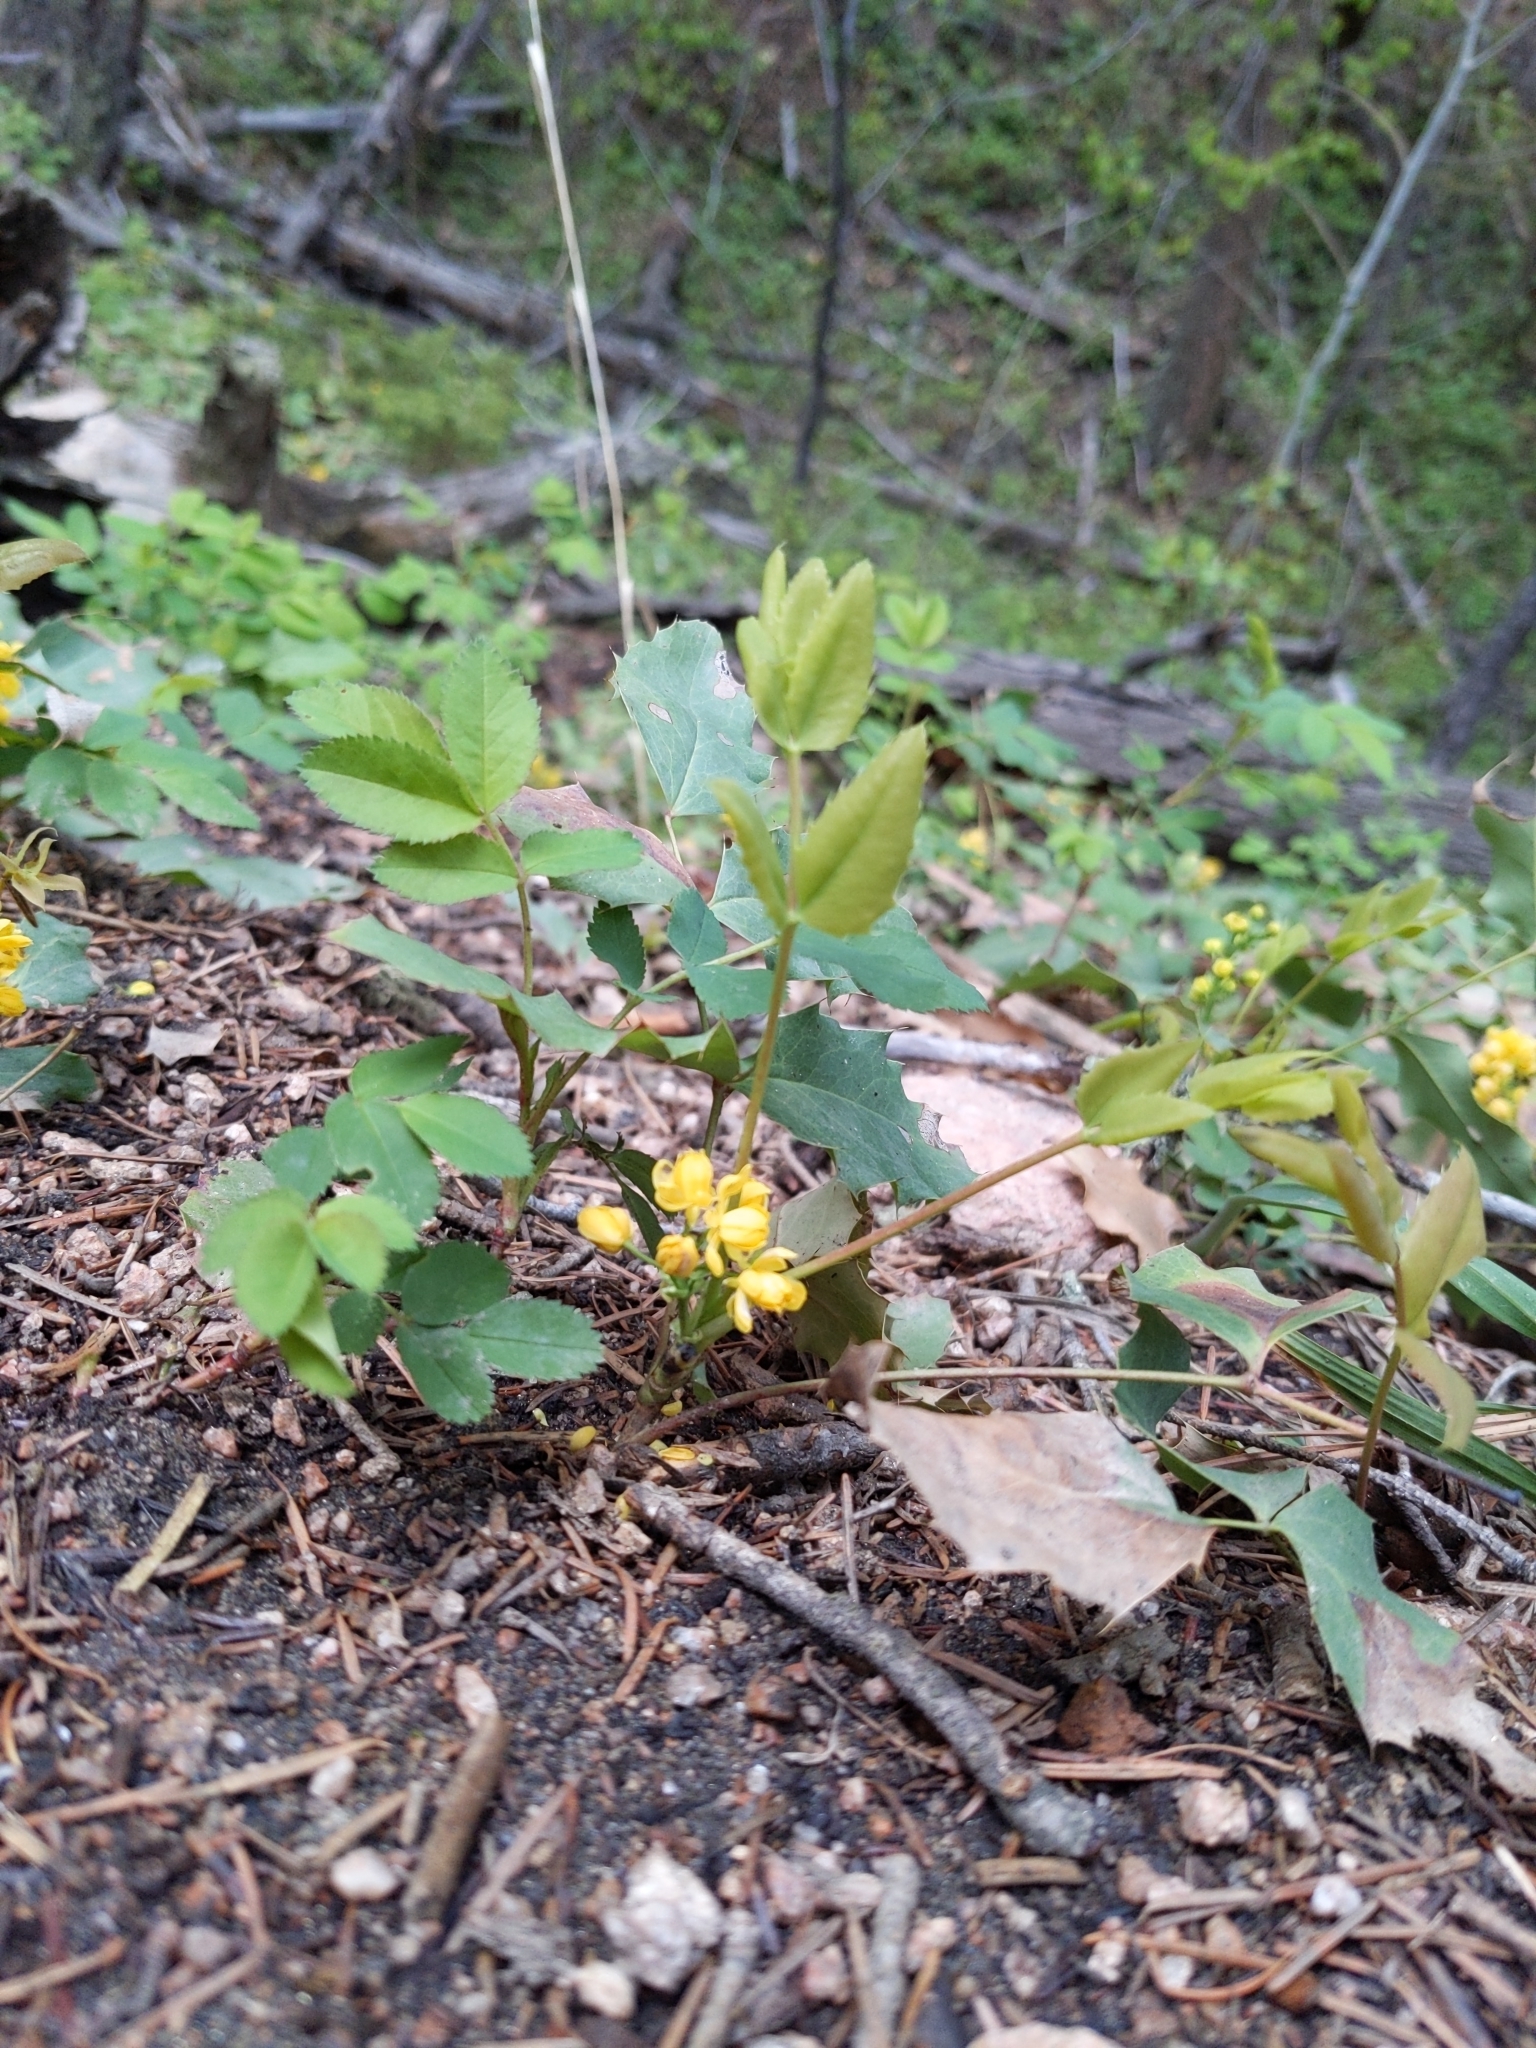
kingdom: Plantae
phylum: Tracheophyta
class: Magnoliopsida
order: Ranunculales
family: Berberidaceae
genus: Mahonia
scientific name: Mahonia repens
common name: Creeping oregon-grape
